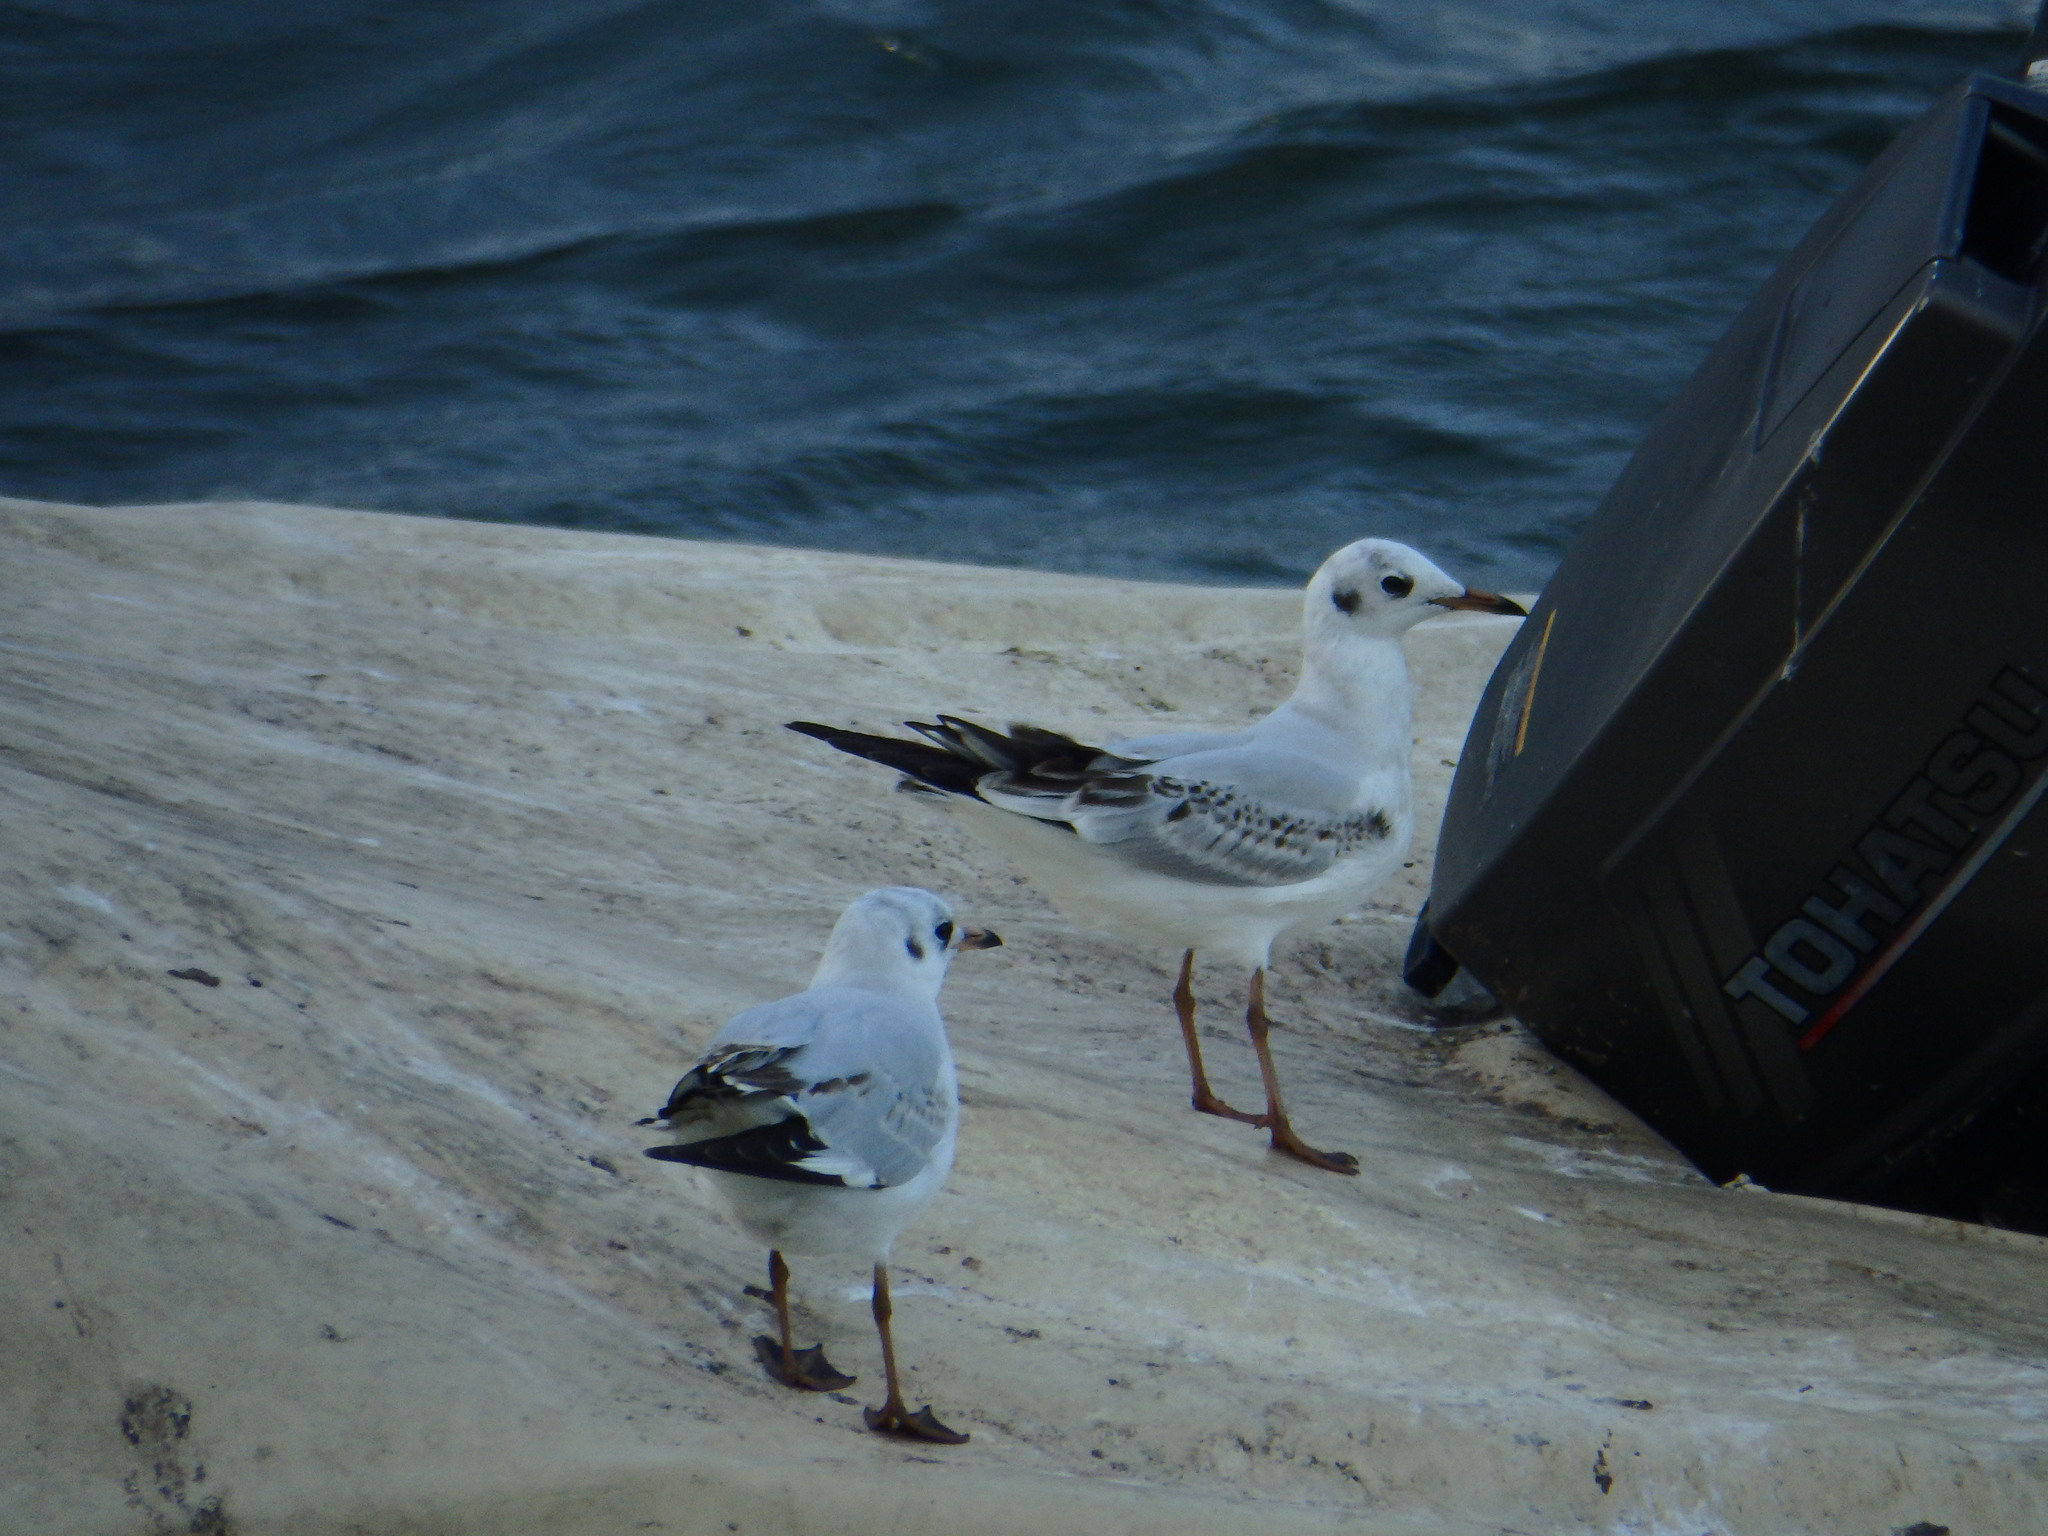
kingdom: Animalia
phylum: Chordata
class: Aves
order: Charadriiformes
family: Laridae
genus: Chroicocephalus
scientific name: Chroicocephalus ridibundus
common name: Black-headed gull
